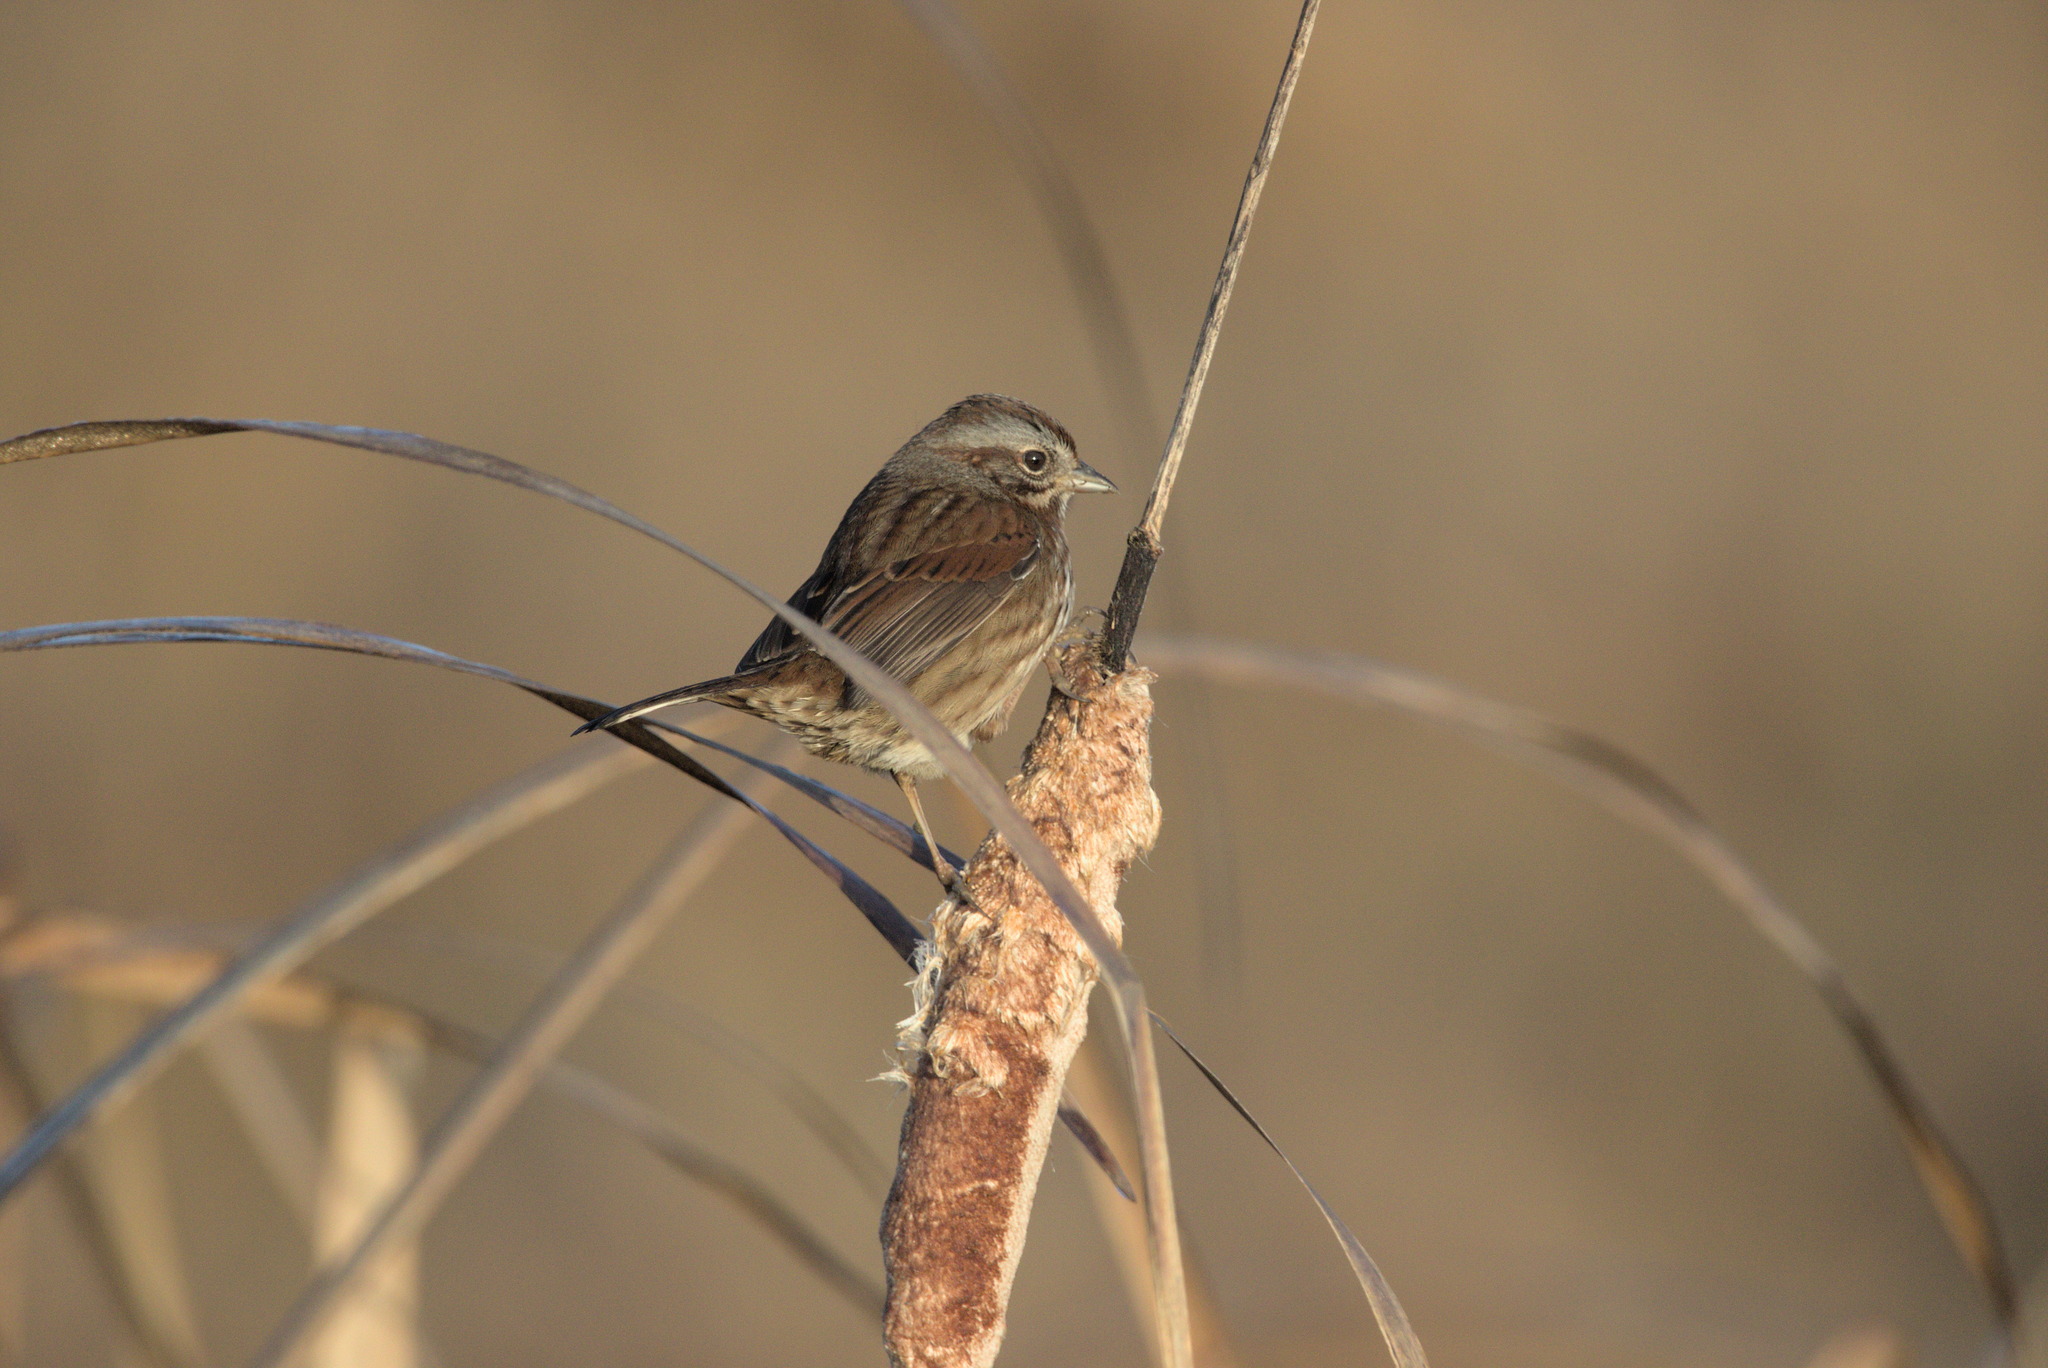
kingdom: Animalia
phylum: Chordata
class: Aves
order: Passeriformes
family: Passerellidae
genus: Melospiza
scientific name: Melospiza melodia
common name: Song sparrow
